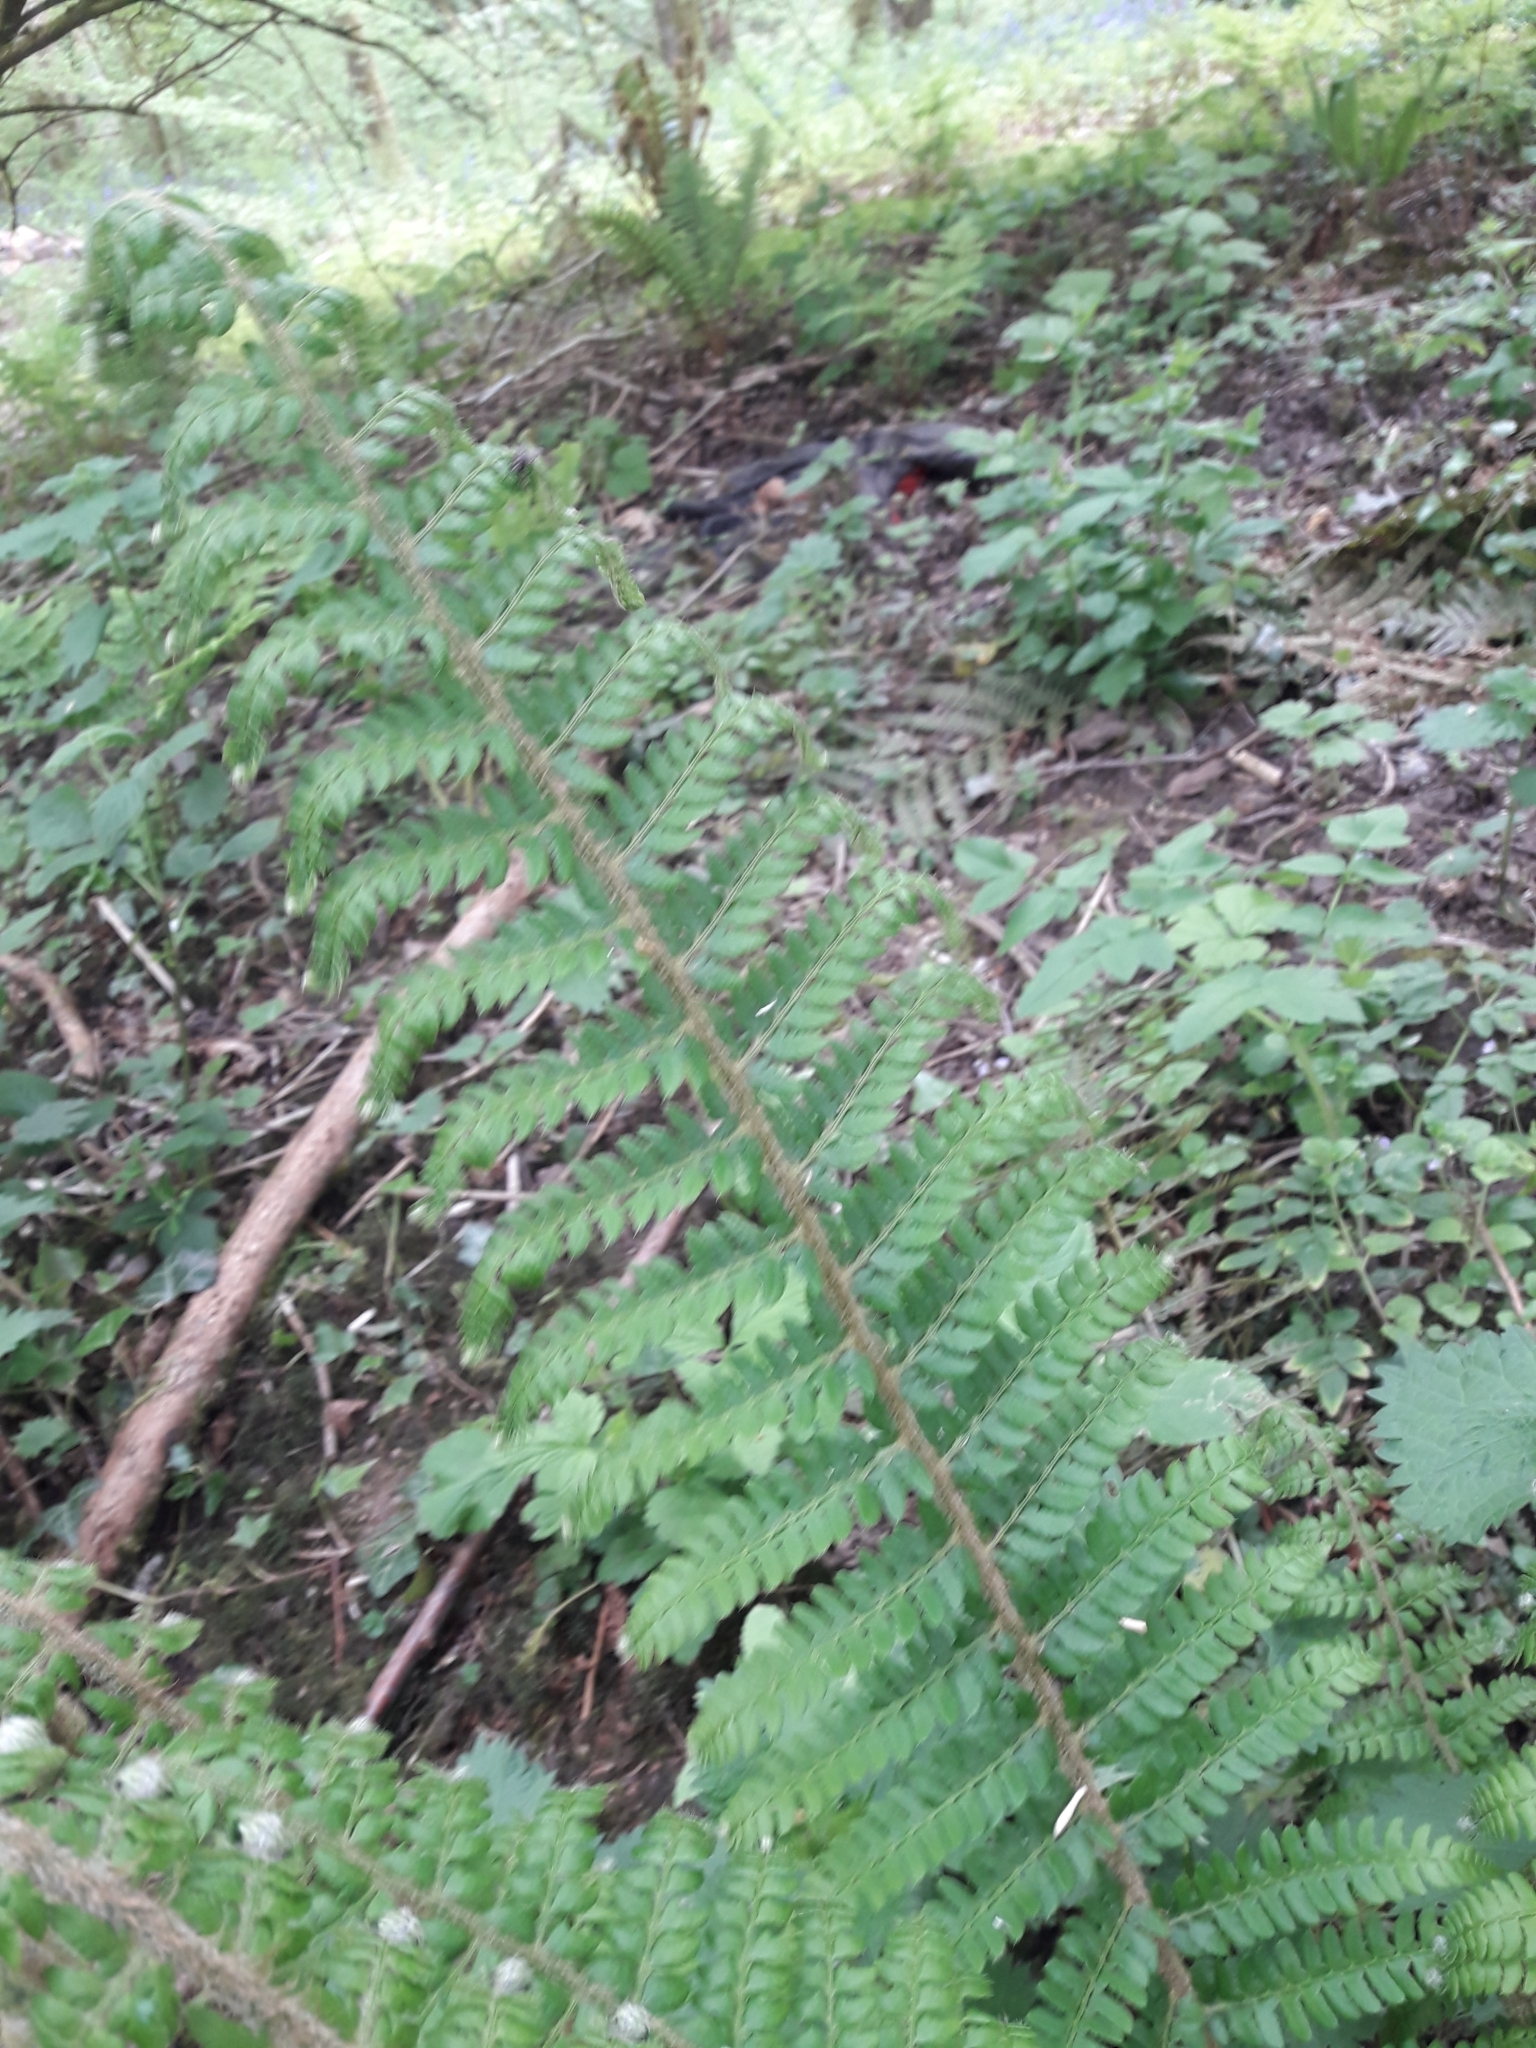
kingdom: Plantae
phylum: Tracheophyta
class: Polypodiopsida
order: Polypodiales
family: Dryopteridaceae
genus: Polystichum
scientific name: Polystichum setiferum
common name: Soft shield-fern
